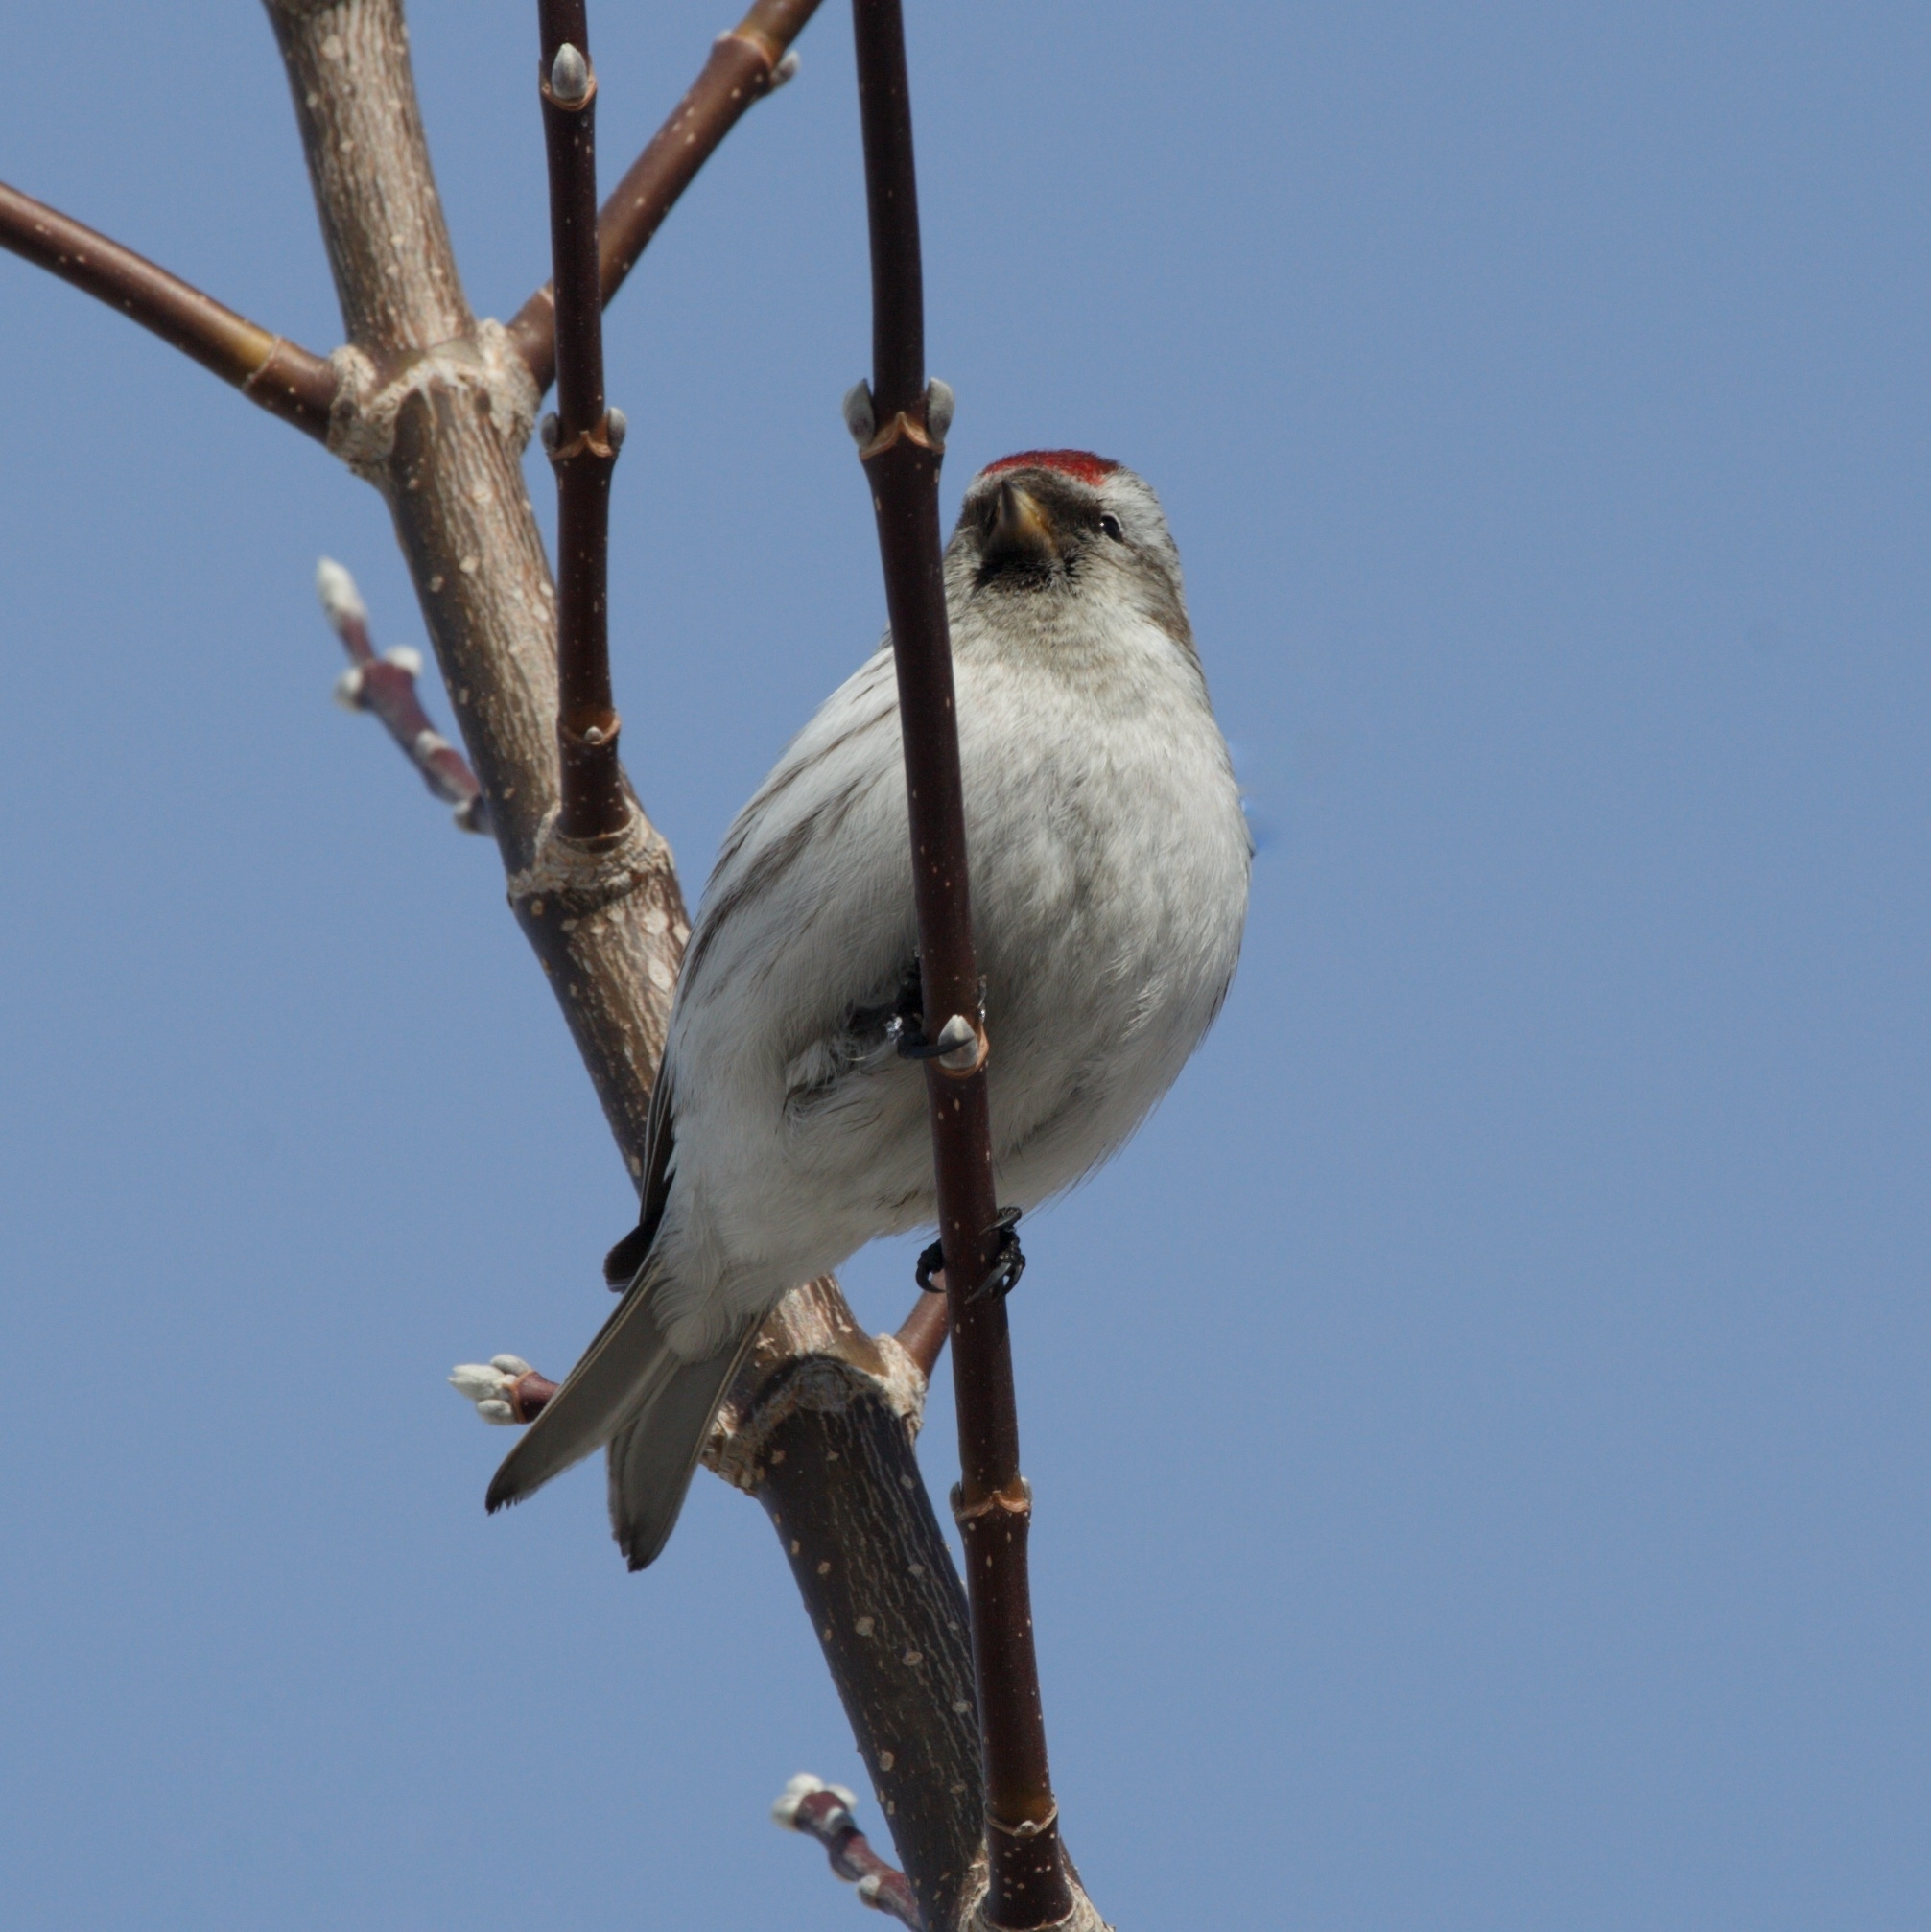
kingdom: Animalia
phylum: Chordata
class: Aves
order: Passeriformes
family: Fringillidae
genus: Acanthis
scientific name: Acanthis flammea
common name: Common redpoll
